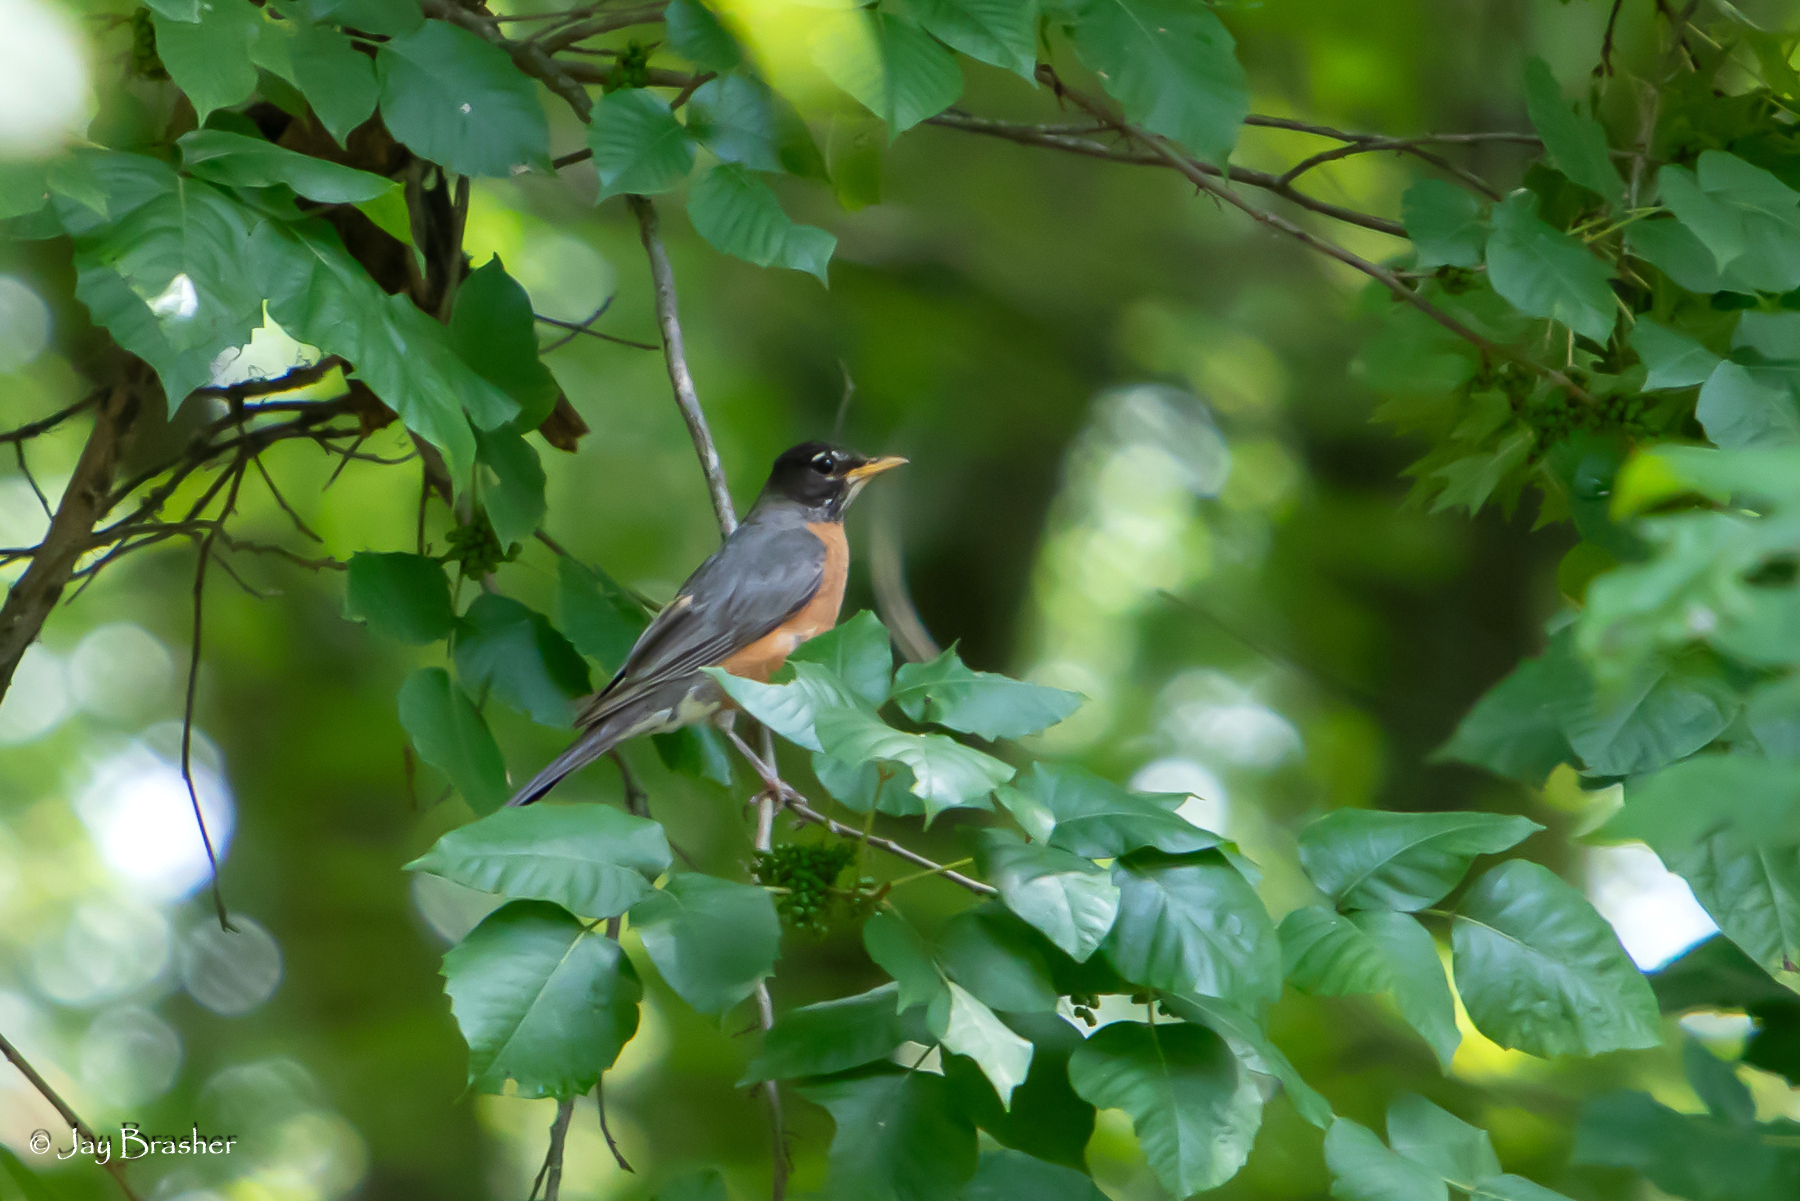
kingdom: Animalia
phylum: Chordata
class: Aves
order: Passeriformes
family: Turdidae
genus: Turdus
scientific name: Turdus migratorius
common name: American robin
